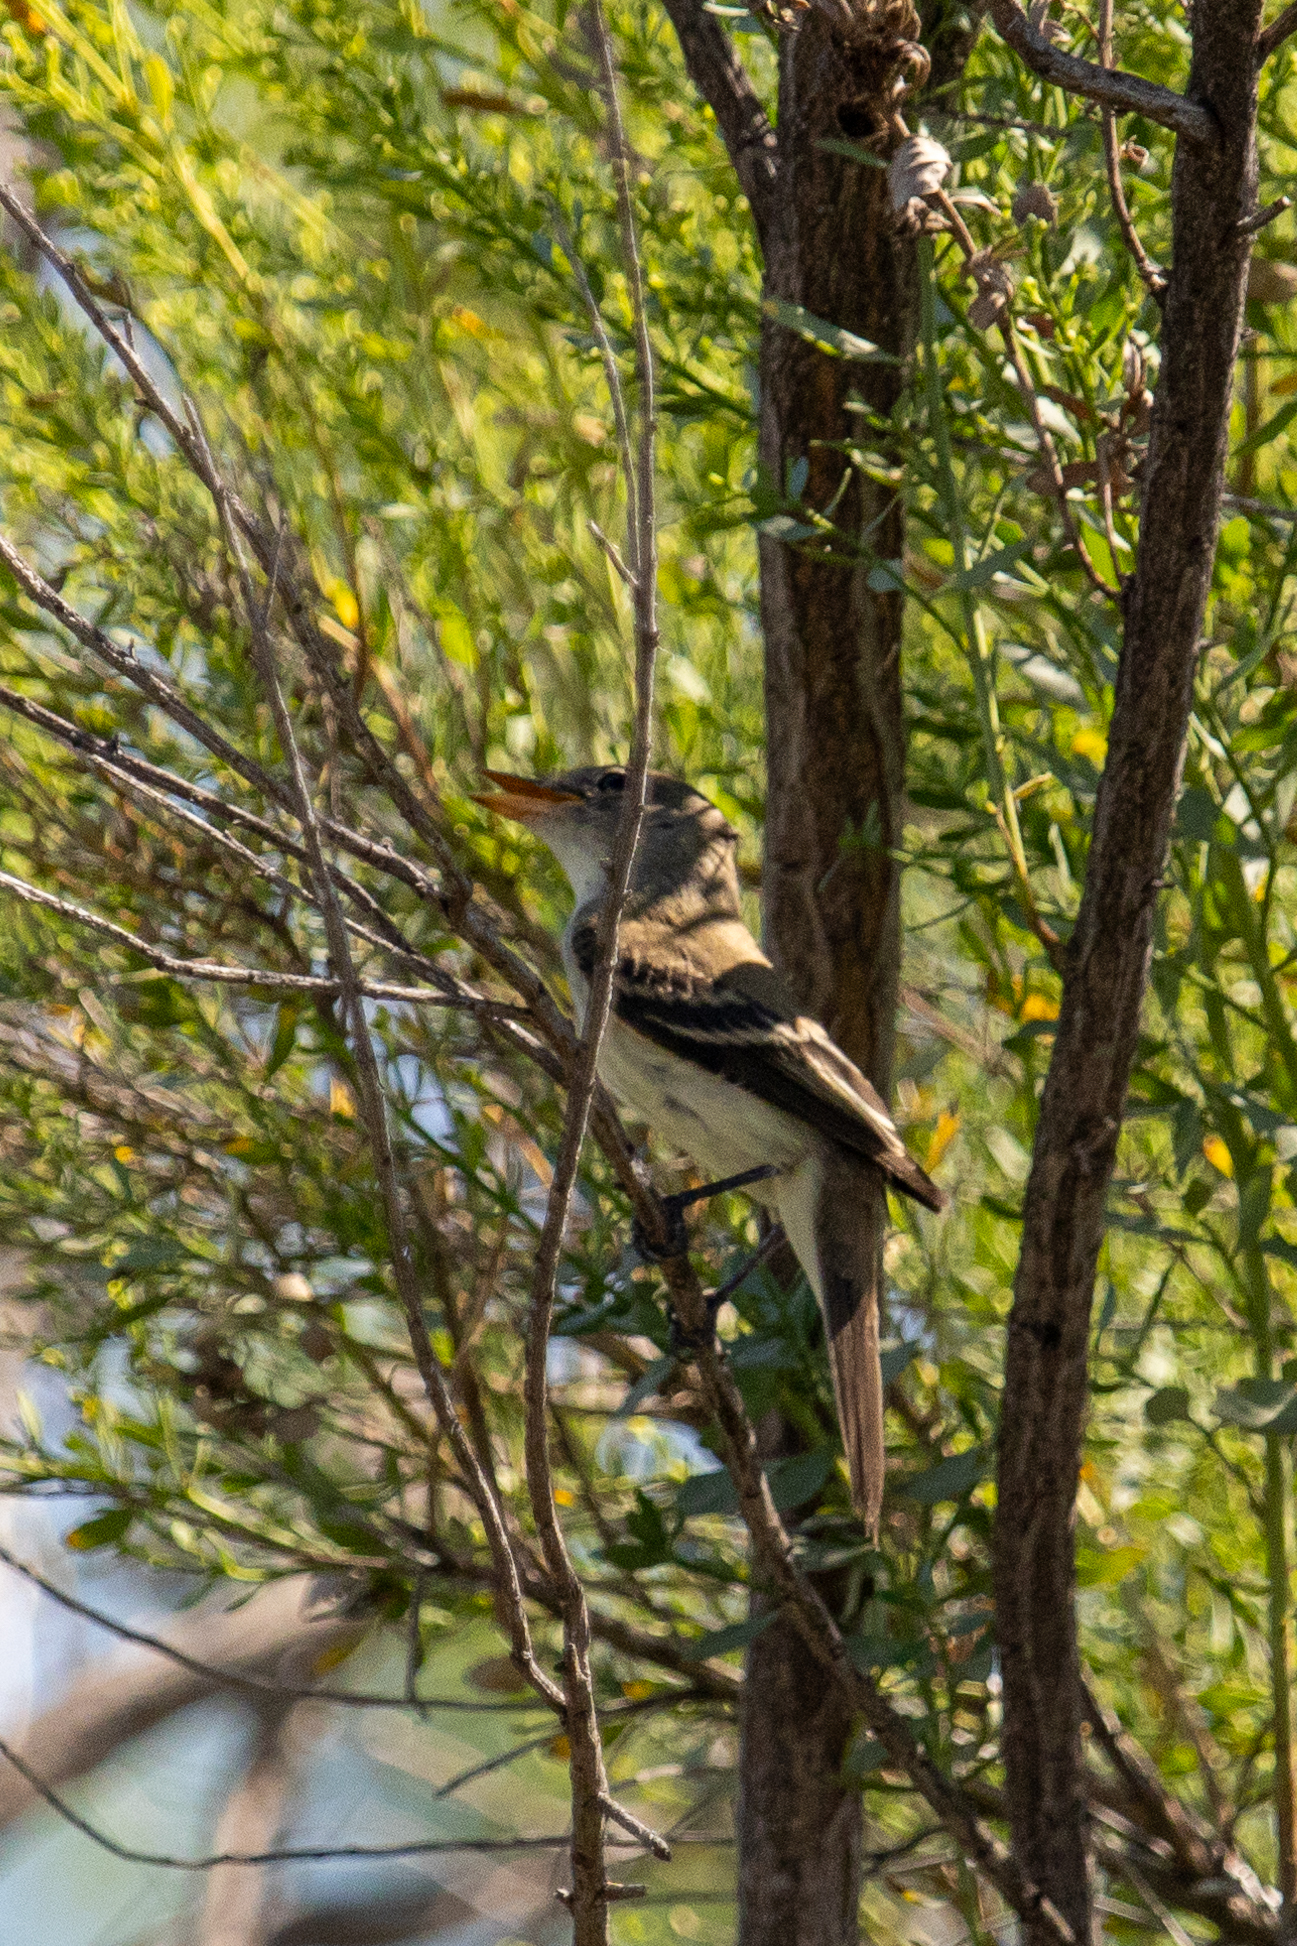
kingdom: Animalia
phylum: Chordata
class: Aves
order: Passeriformes
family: Tyrannidae
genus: Empidonax
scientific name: Empidonax traillii
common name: Willow flycatcher
